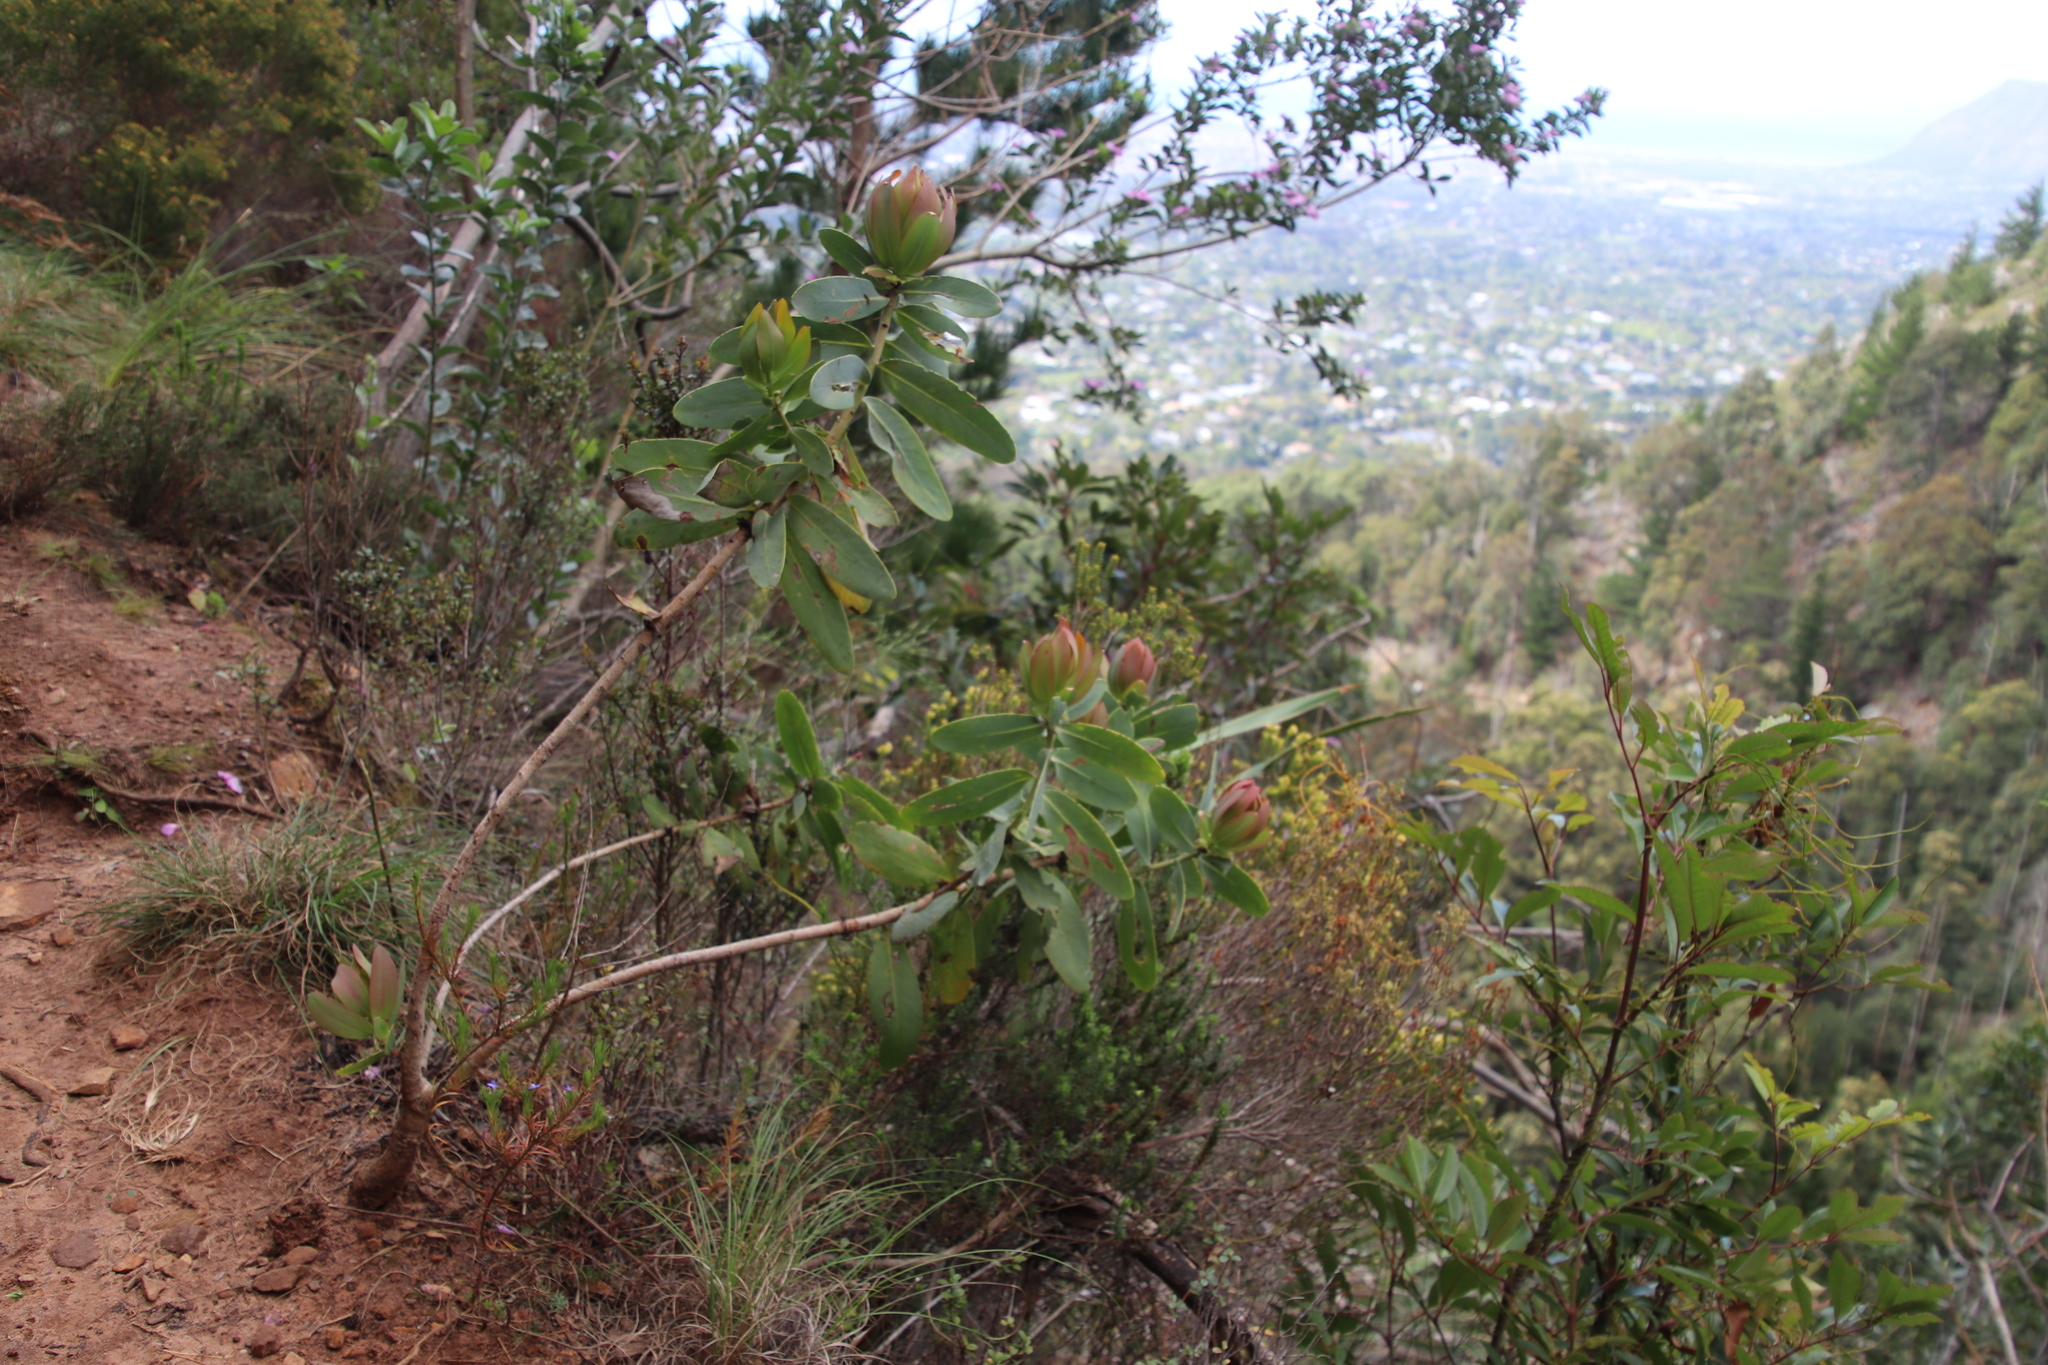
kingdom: Plantae
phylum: Tracheophyta
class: Magnoliopsida
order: Proteales
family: Proteaceae
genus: Protea
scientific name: Protea nitida
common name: Tree protea
